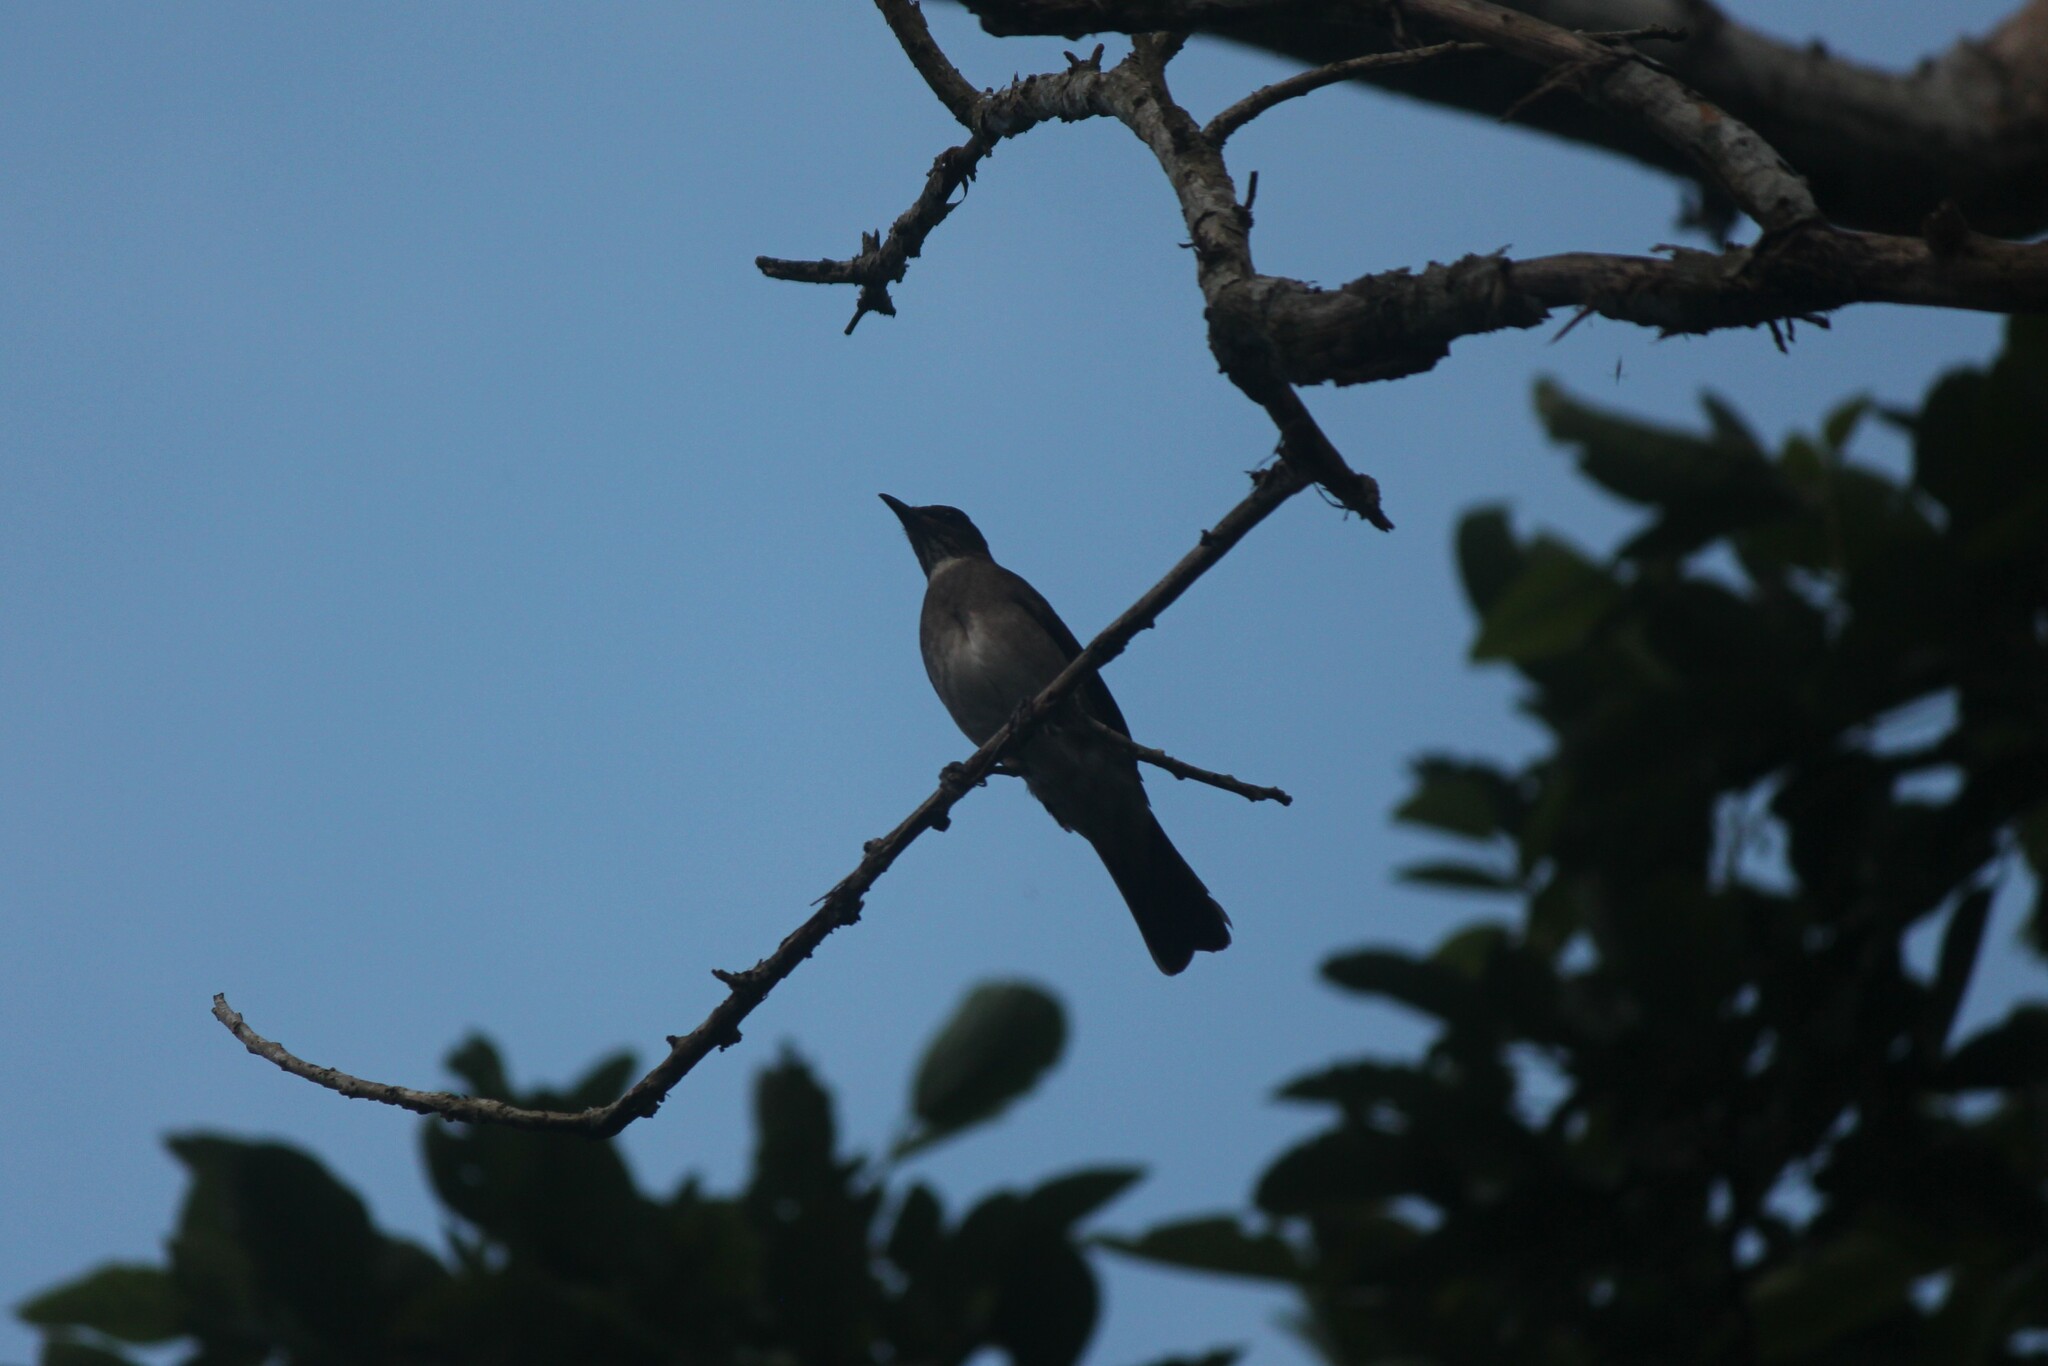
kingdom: Animalia
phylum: Chordata
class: Aves
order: Passeriformes
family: Turdidae
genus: Turdus
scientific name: Turdus ignobilis
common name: Black-billed thrush
